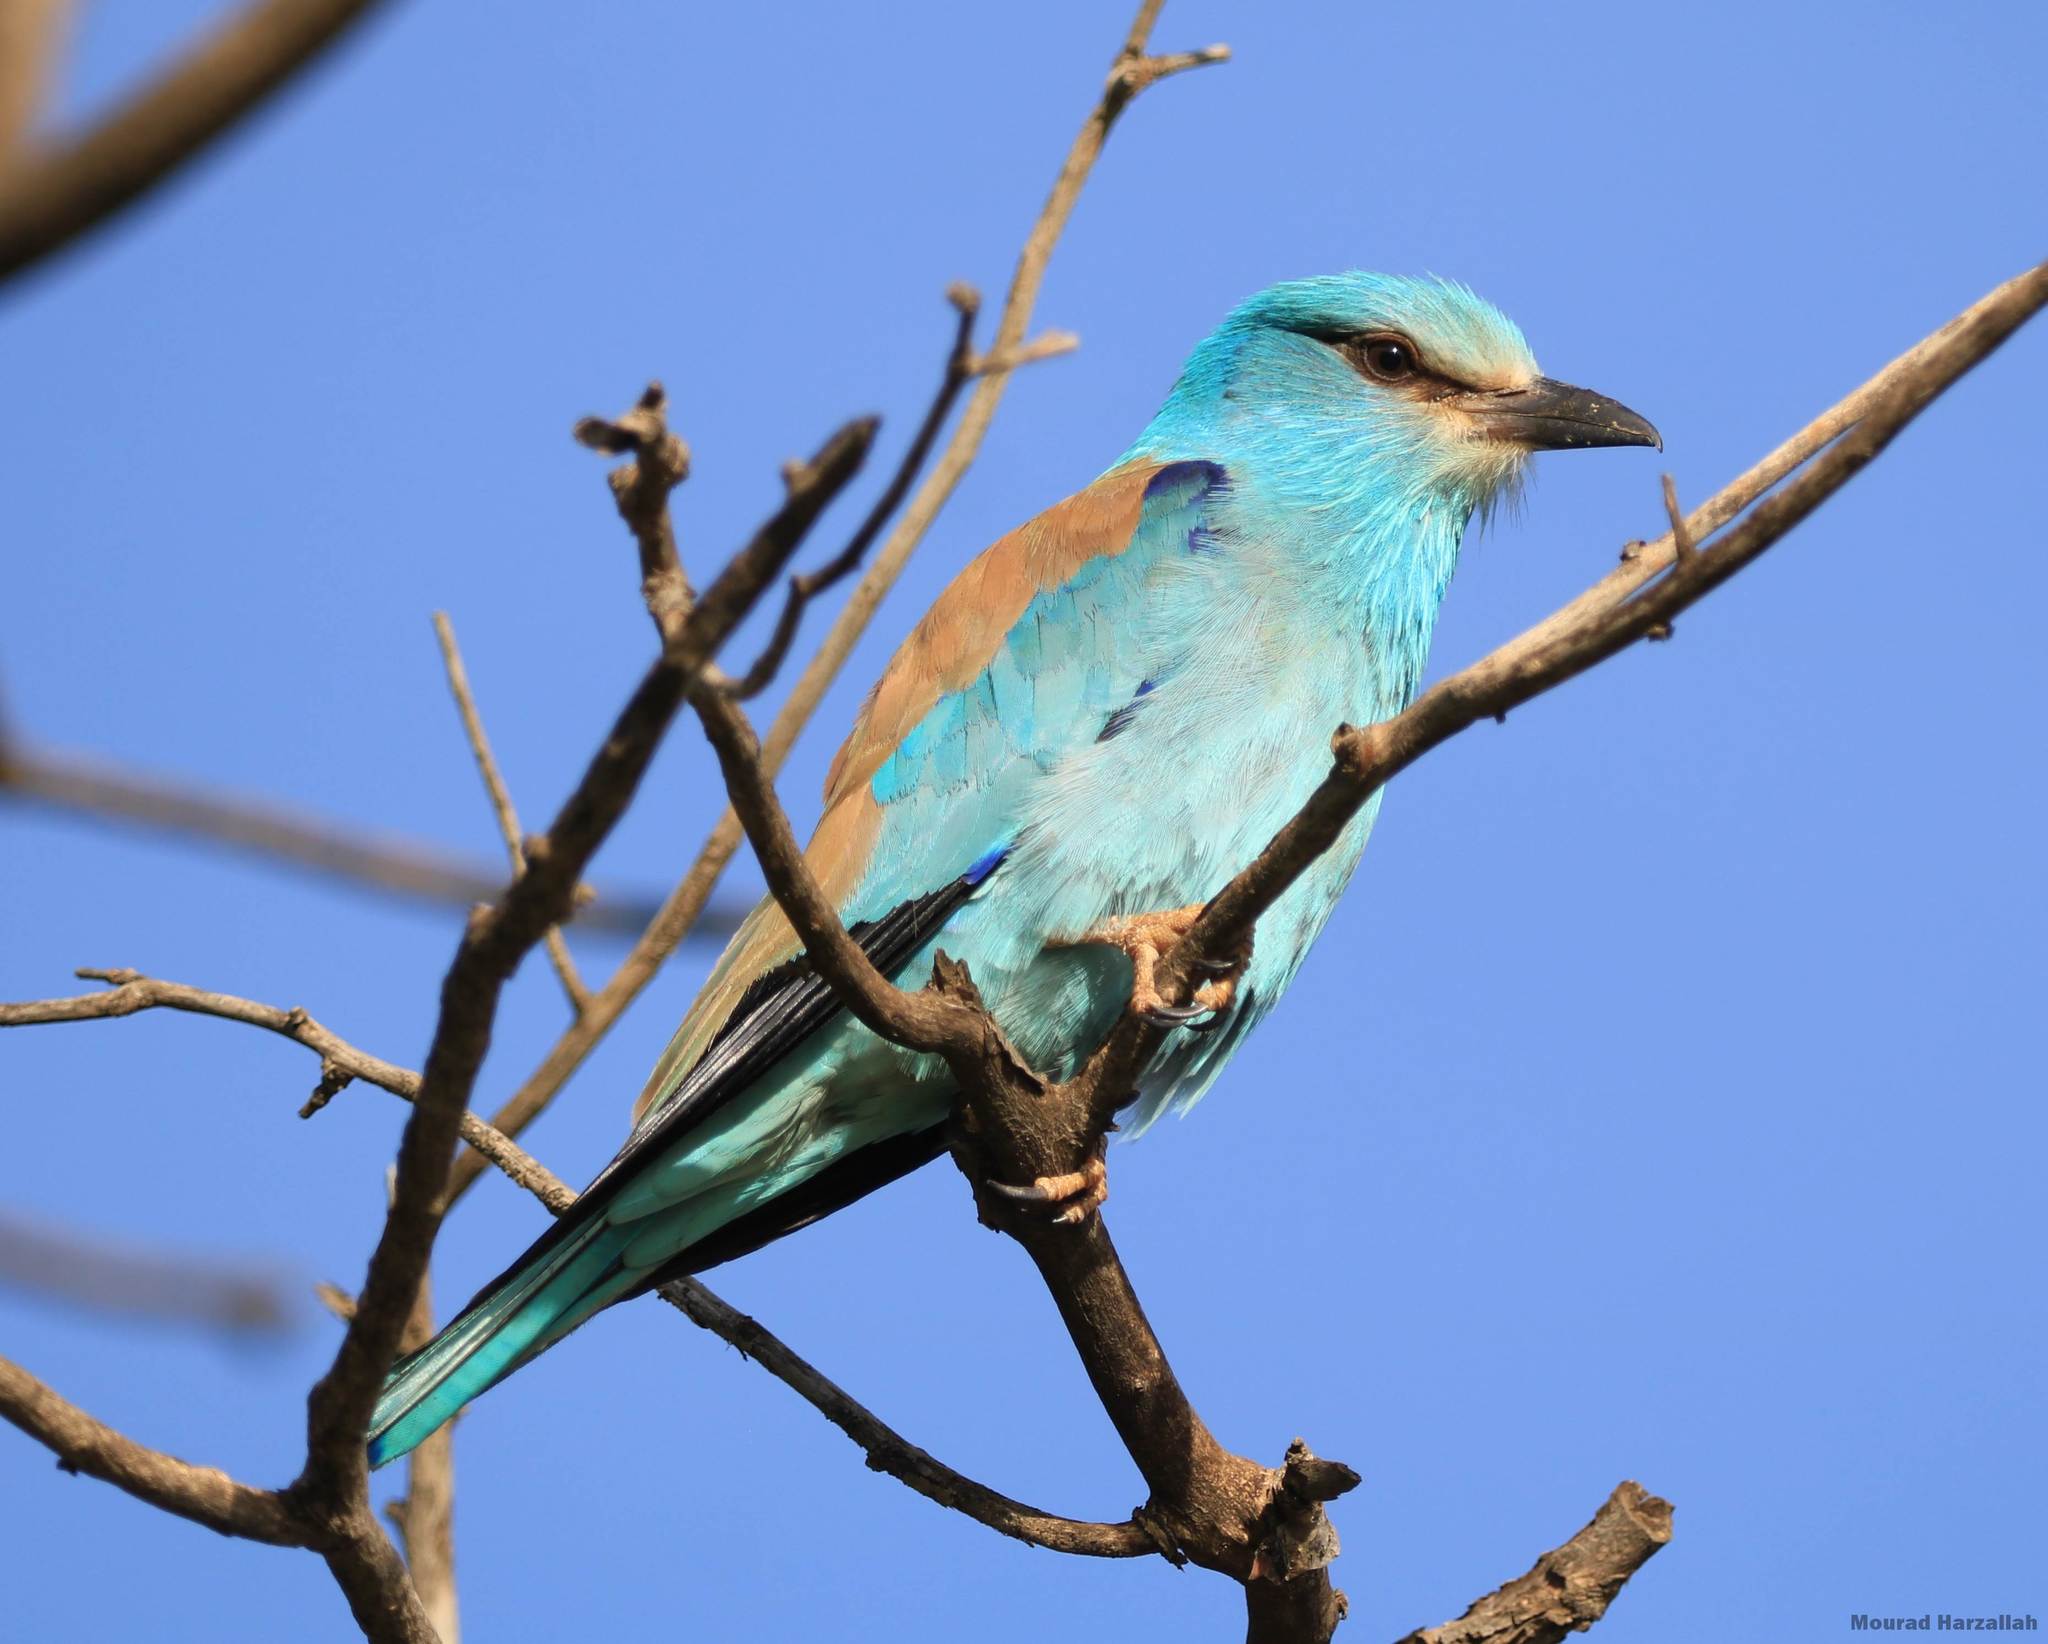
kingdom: Animalia
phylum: Chordata
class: Aves
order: Coraciiformes
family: Coraciidae
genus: Coracias
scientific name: Coracias garrulus
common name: European roller
